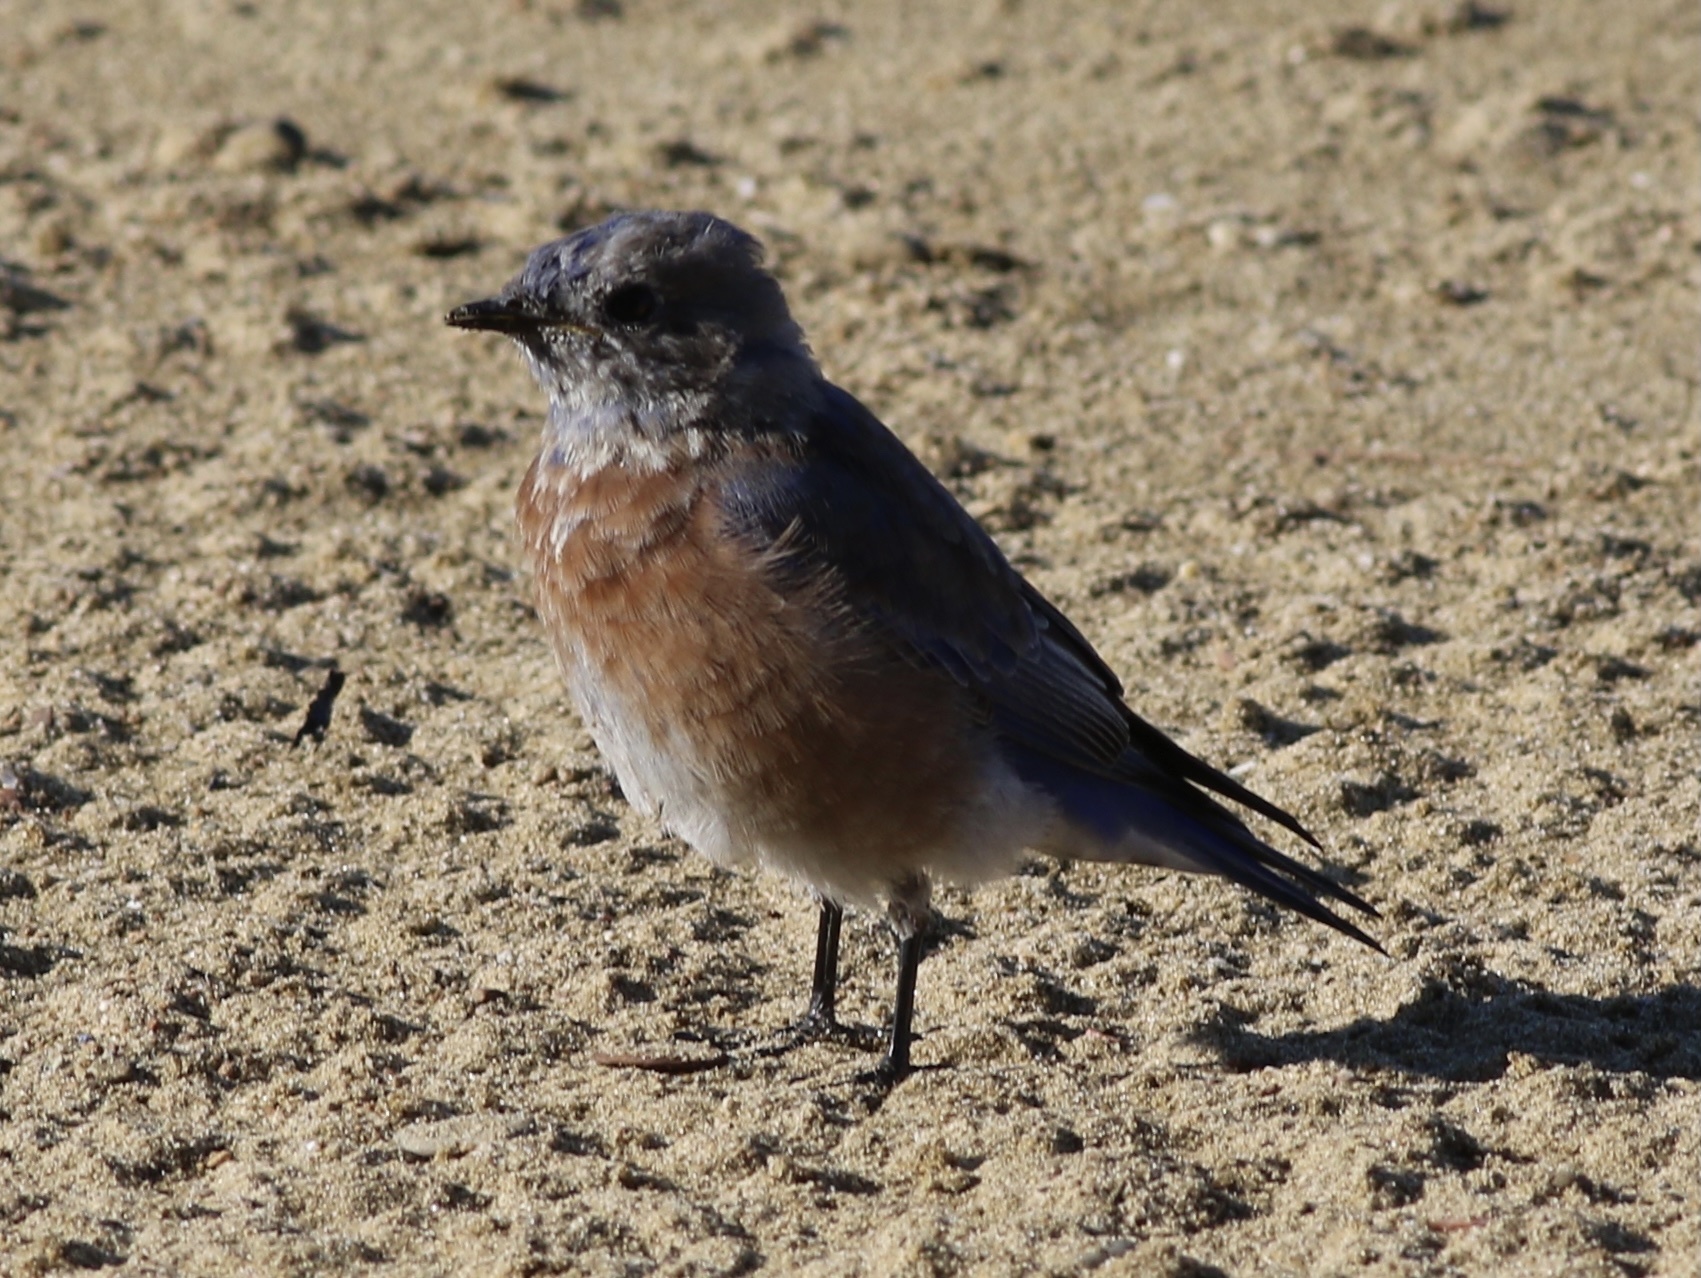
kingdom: Animalia
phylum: Chordata
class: Aves
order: Passeriformes
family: Turdidae
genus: Sialia
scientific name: Sialia mexicana
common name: Western bluebird
